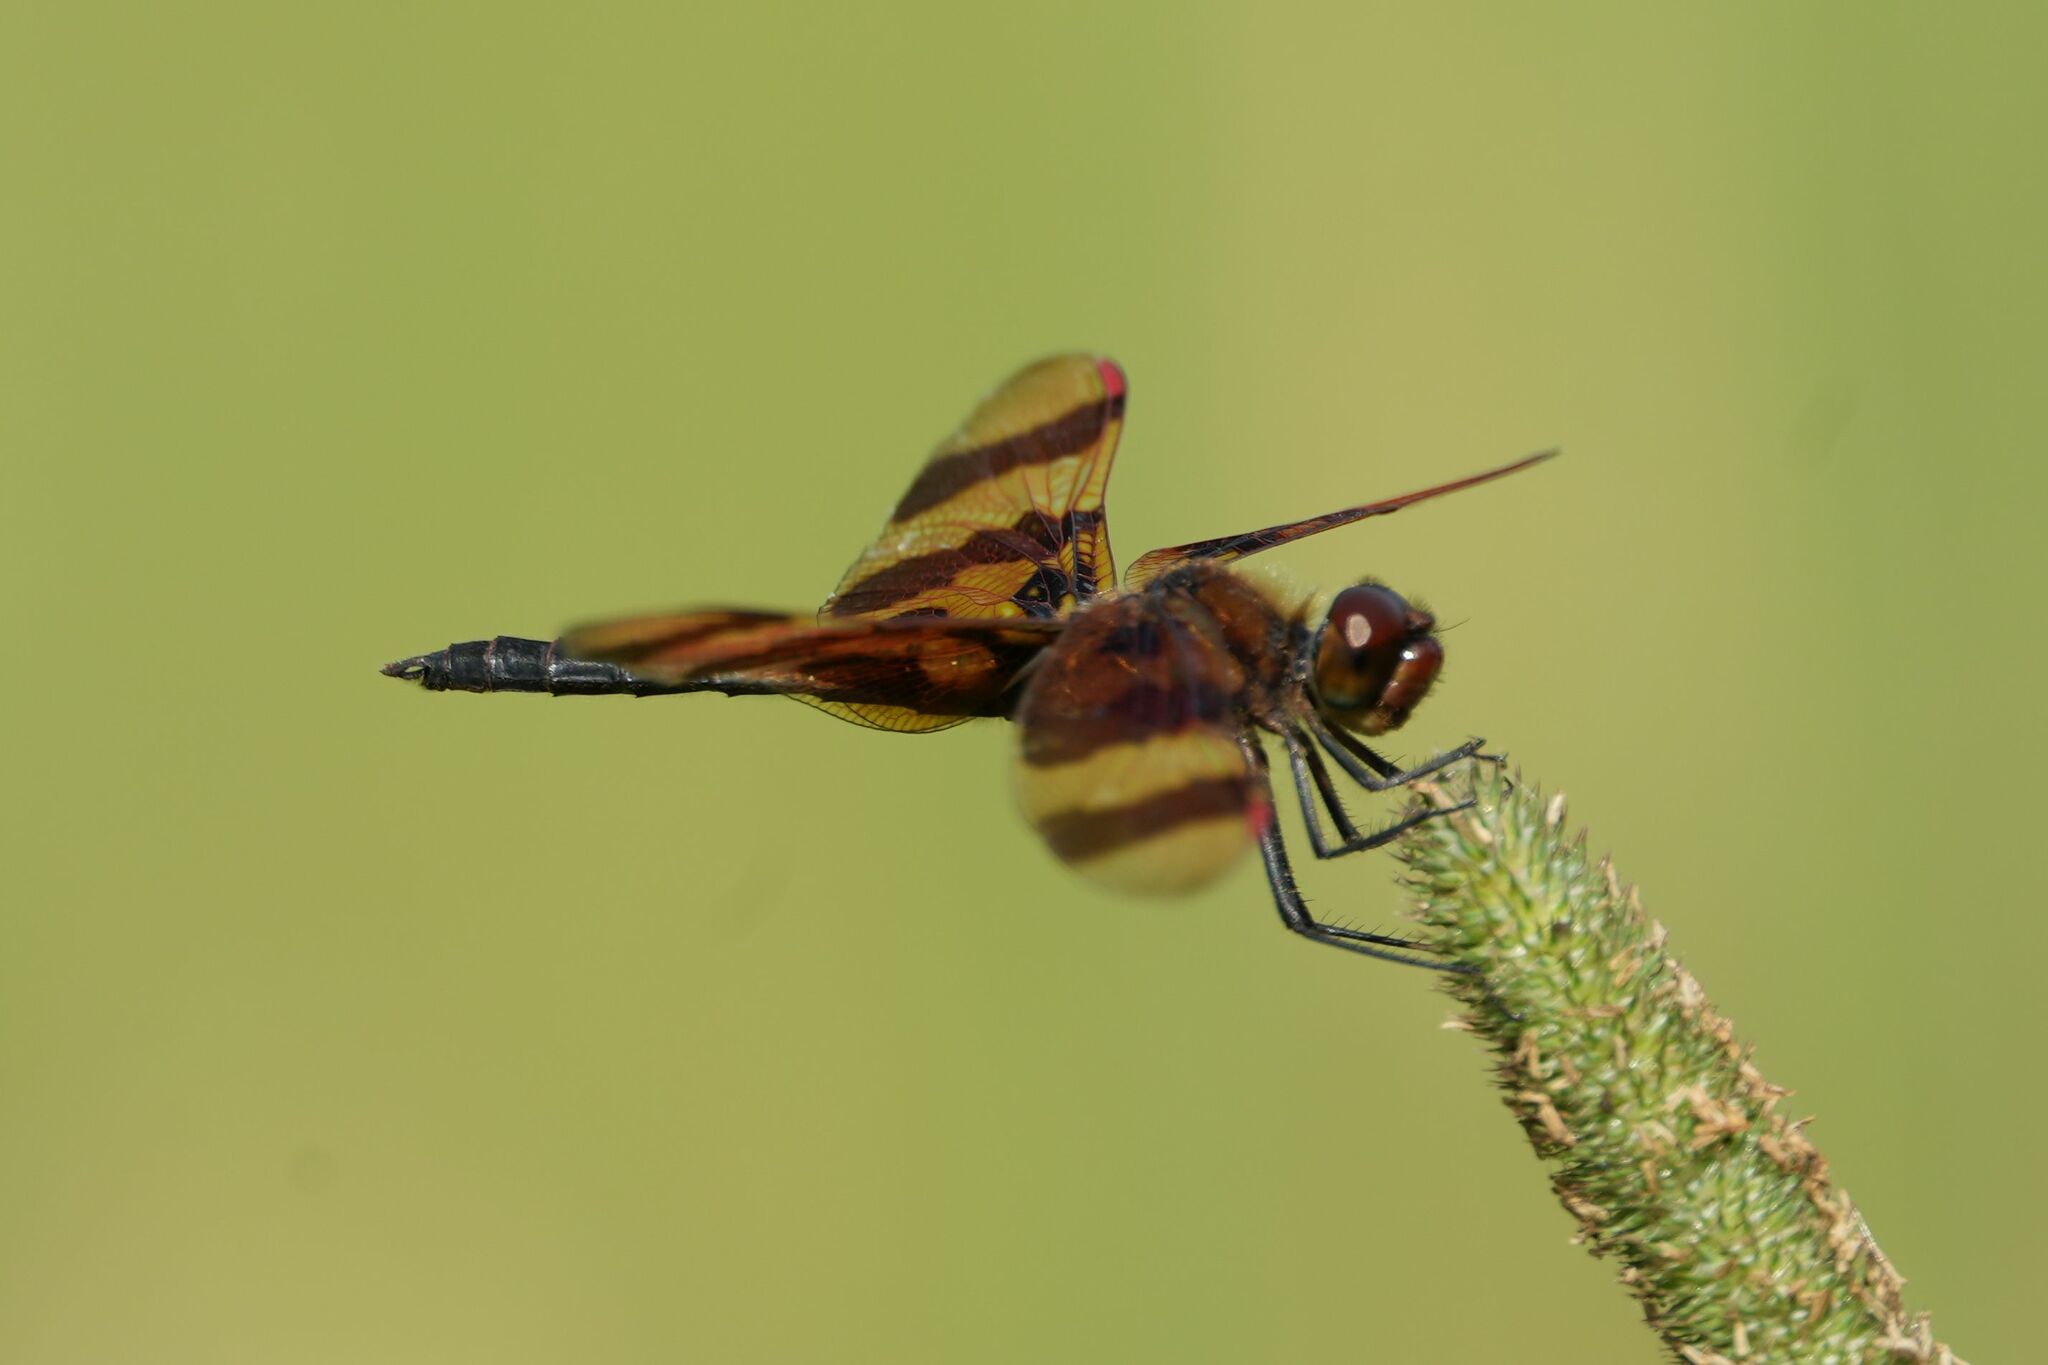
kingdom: Animalia
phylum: Arthropoda
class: Insecta
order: Odonata
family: Libellulidae
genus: Celithemis
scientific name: Celithemis eponina
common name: Halloween pennant
